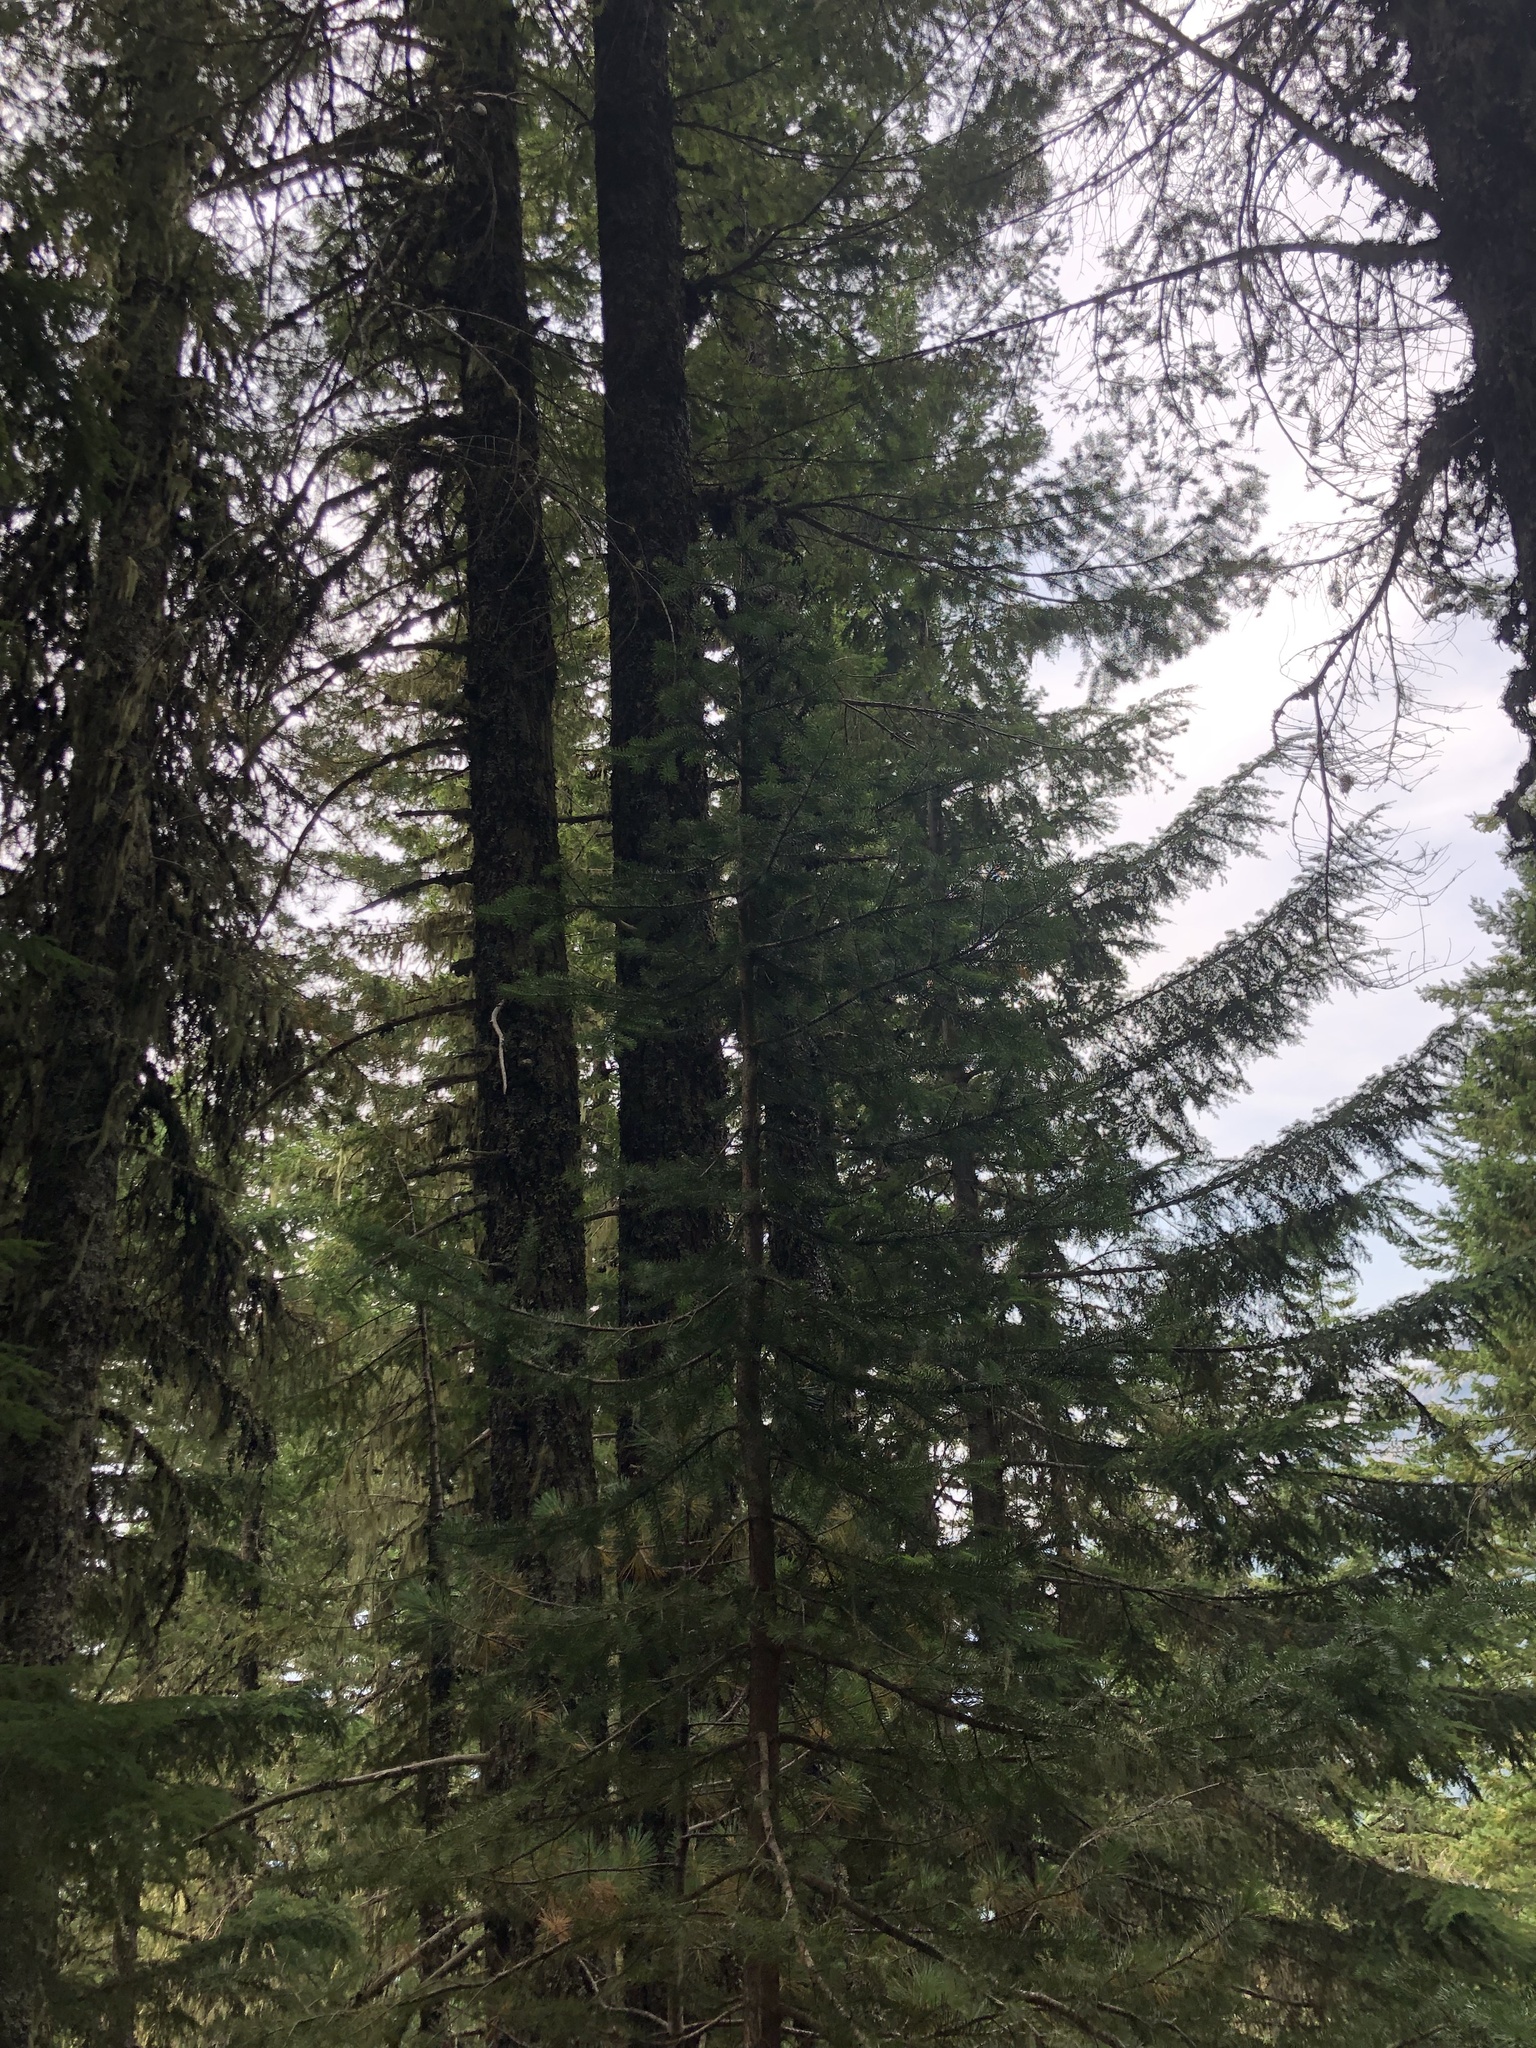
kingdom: Plantae
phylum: Tracheophyta
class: Pinopsida
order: Pinales
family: Pinaceae
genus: Pinus
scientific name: Pinus contorta
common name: Lodgepole pine
